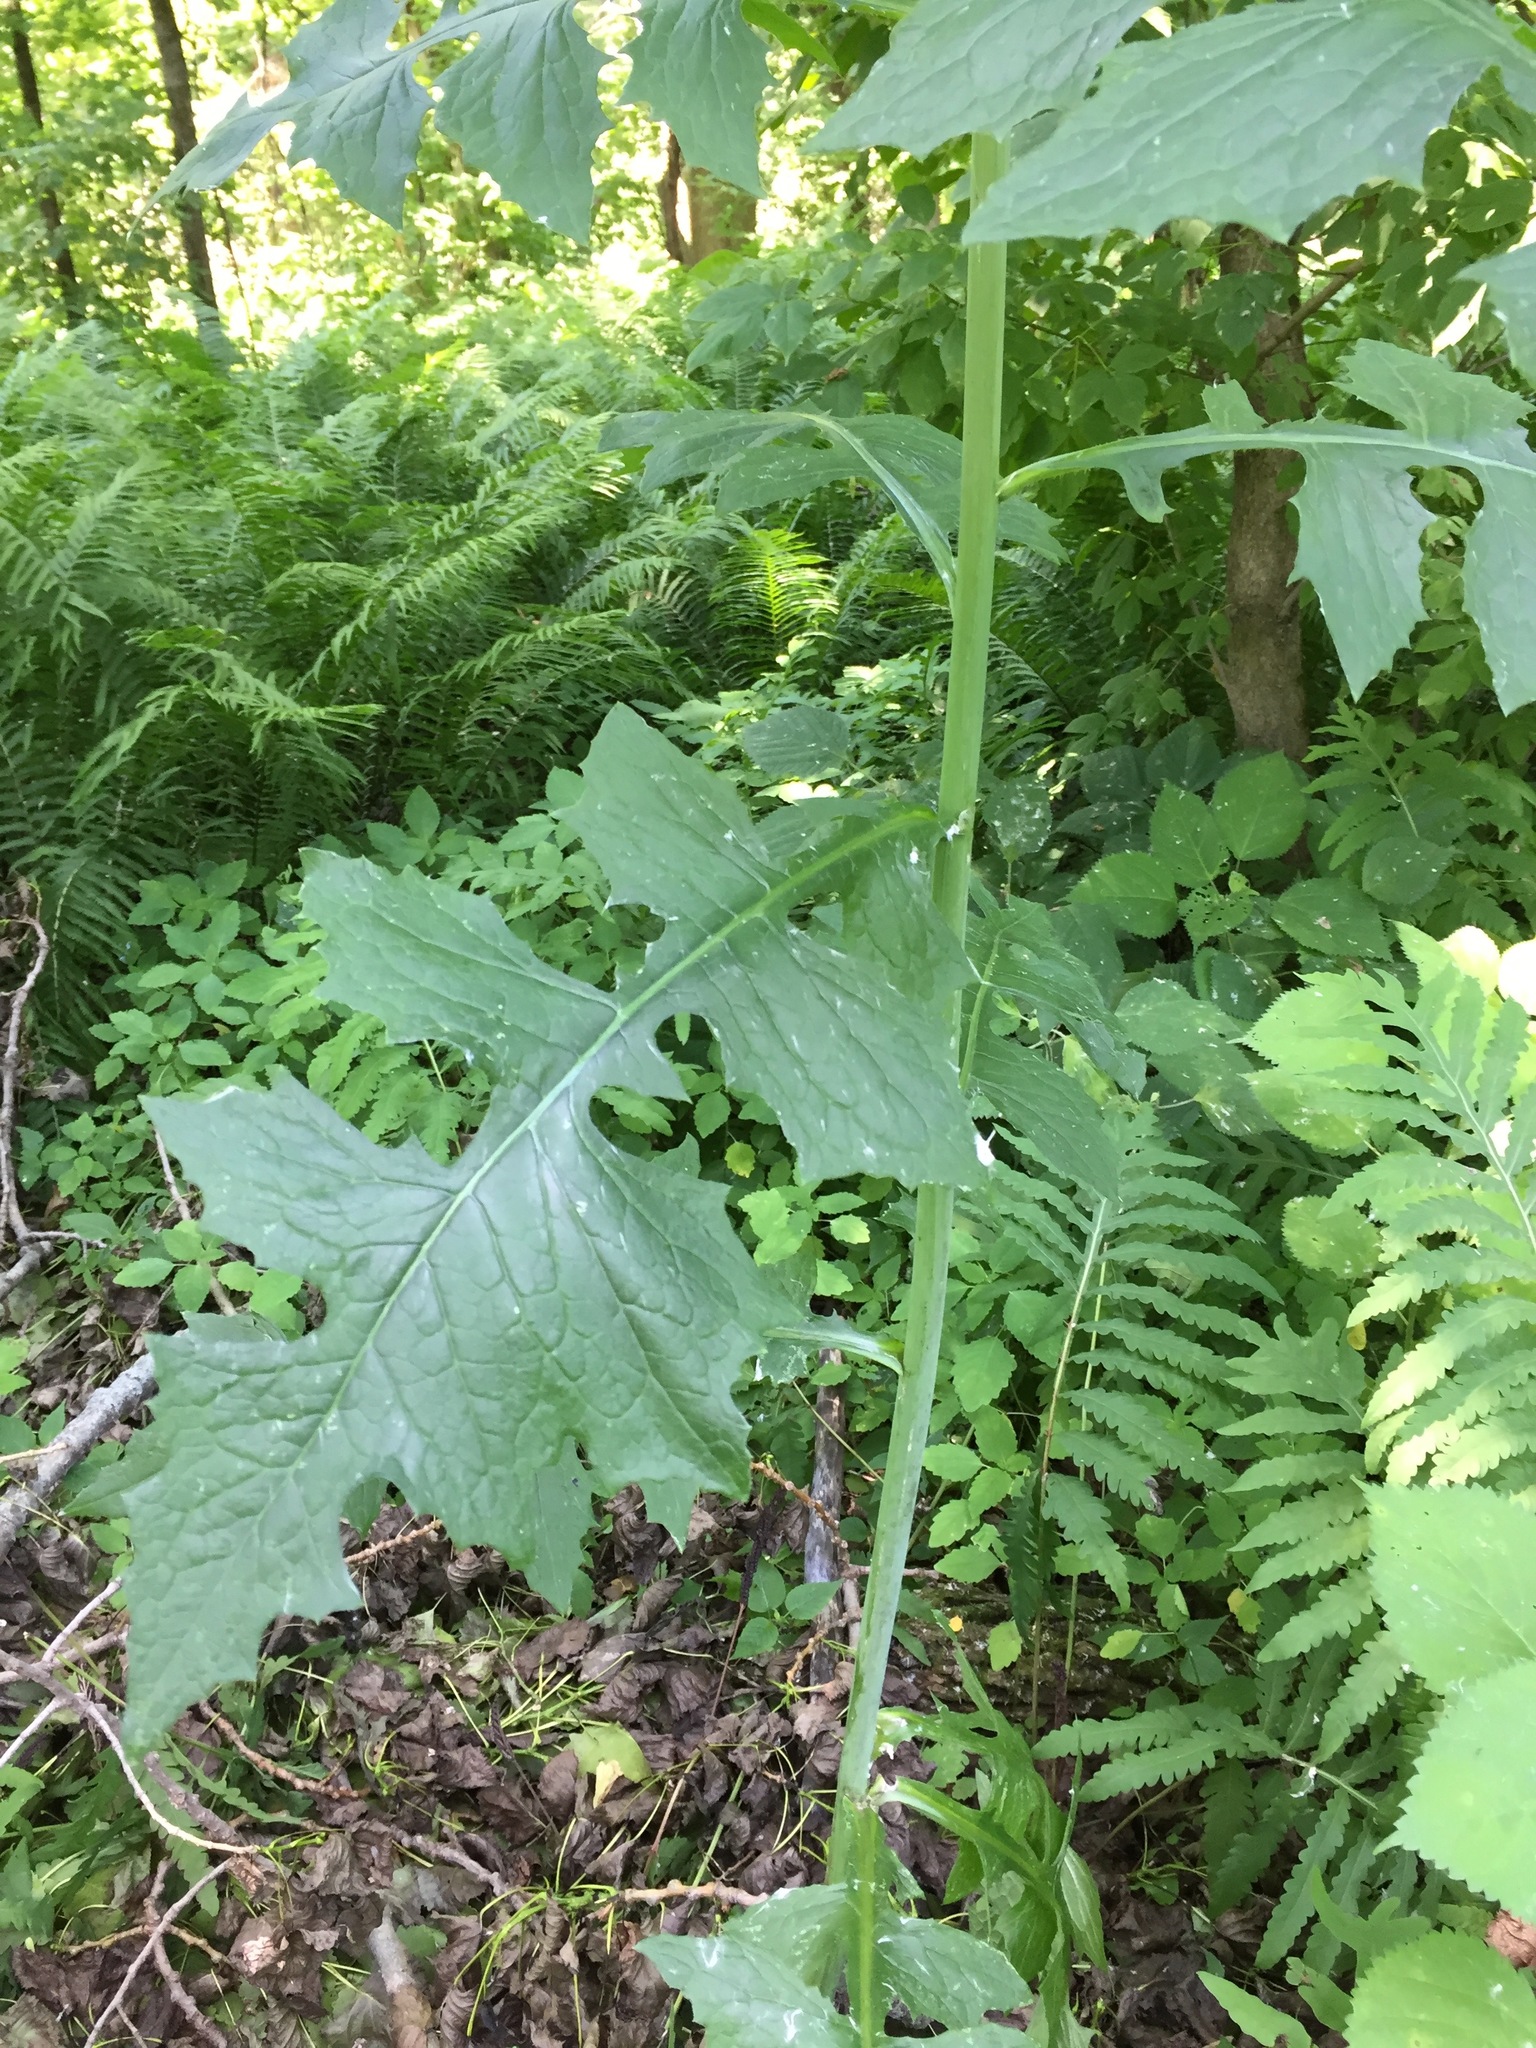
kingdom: Plantae
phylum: Tracheophyta
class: Magnoliopsida
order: Asterales
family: Asteraceae
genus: Lactuca
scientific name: Lactuca biennis
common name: Blue wood lettuce
